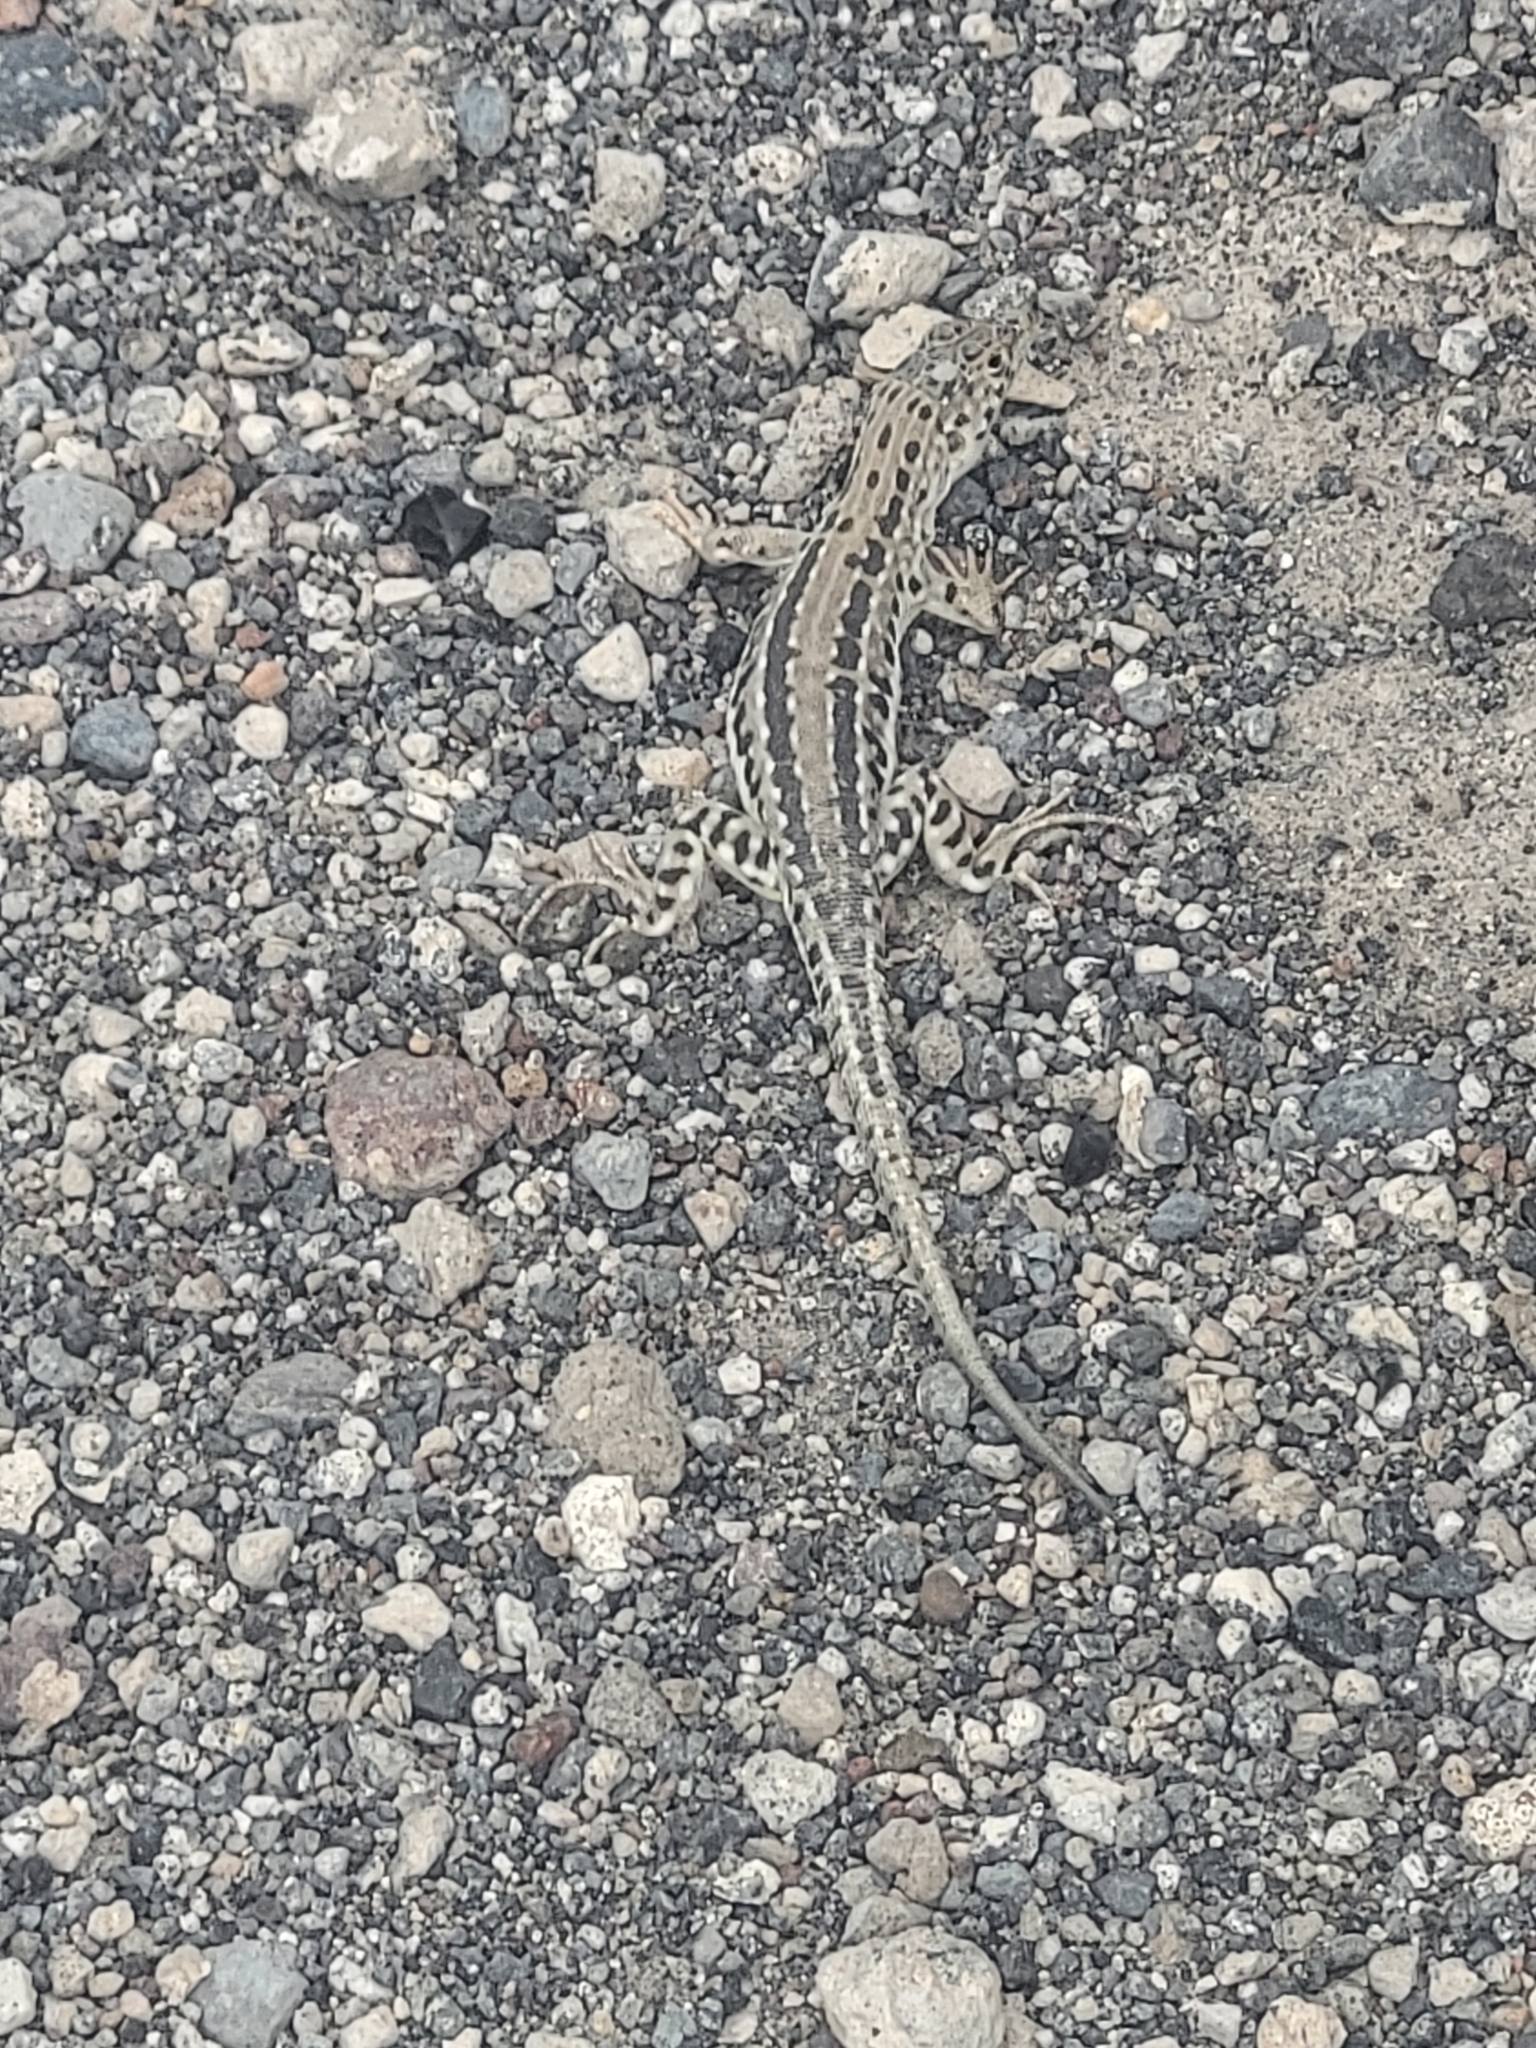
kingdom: Animalia
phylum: Chordata
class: Squamata
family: Lacertidae
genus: Eremias
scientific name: Eremias strauchi
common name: Strauch's racerunner
